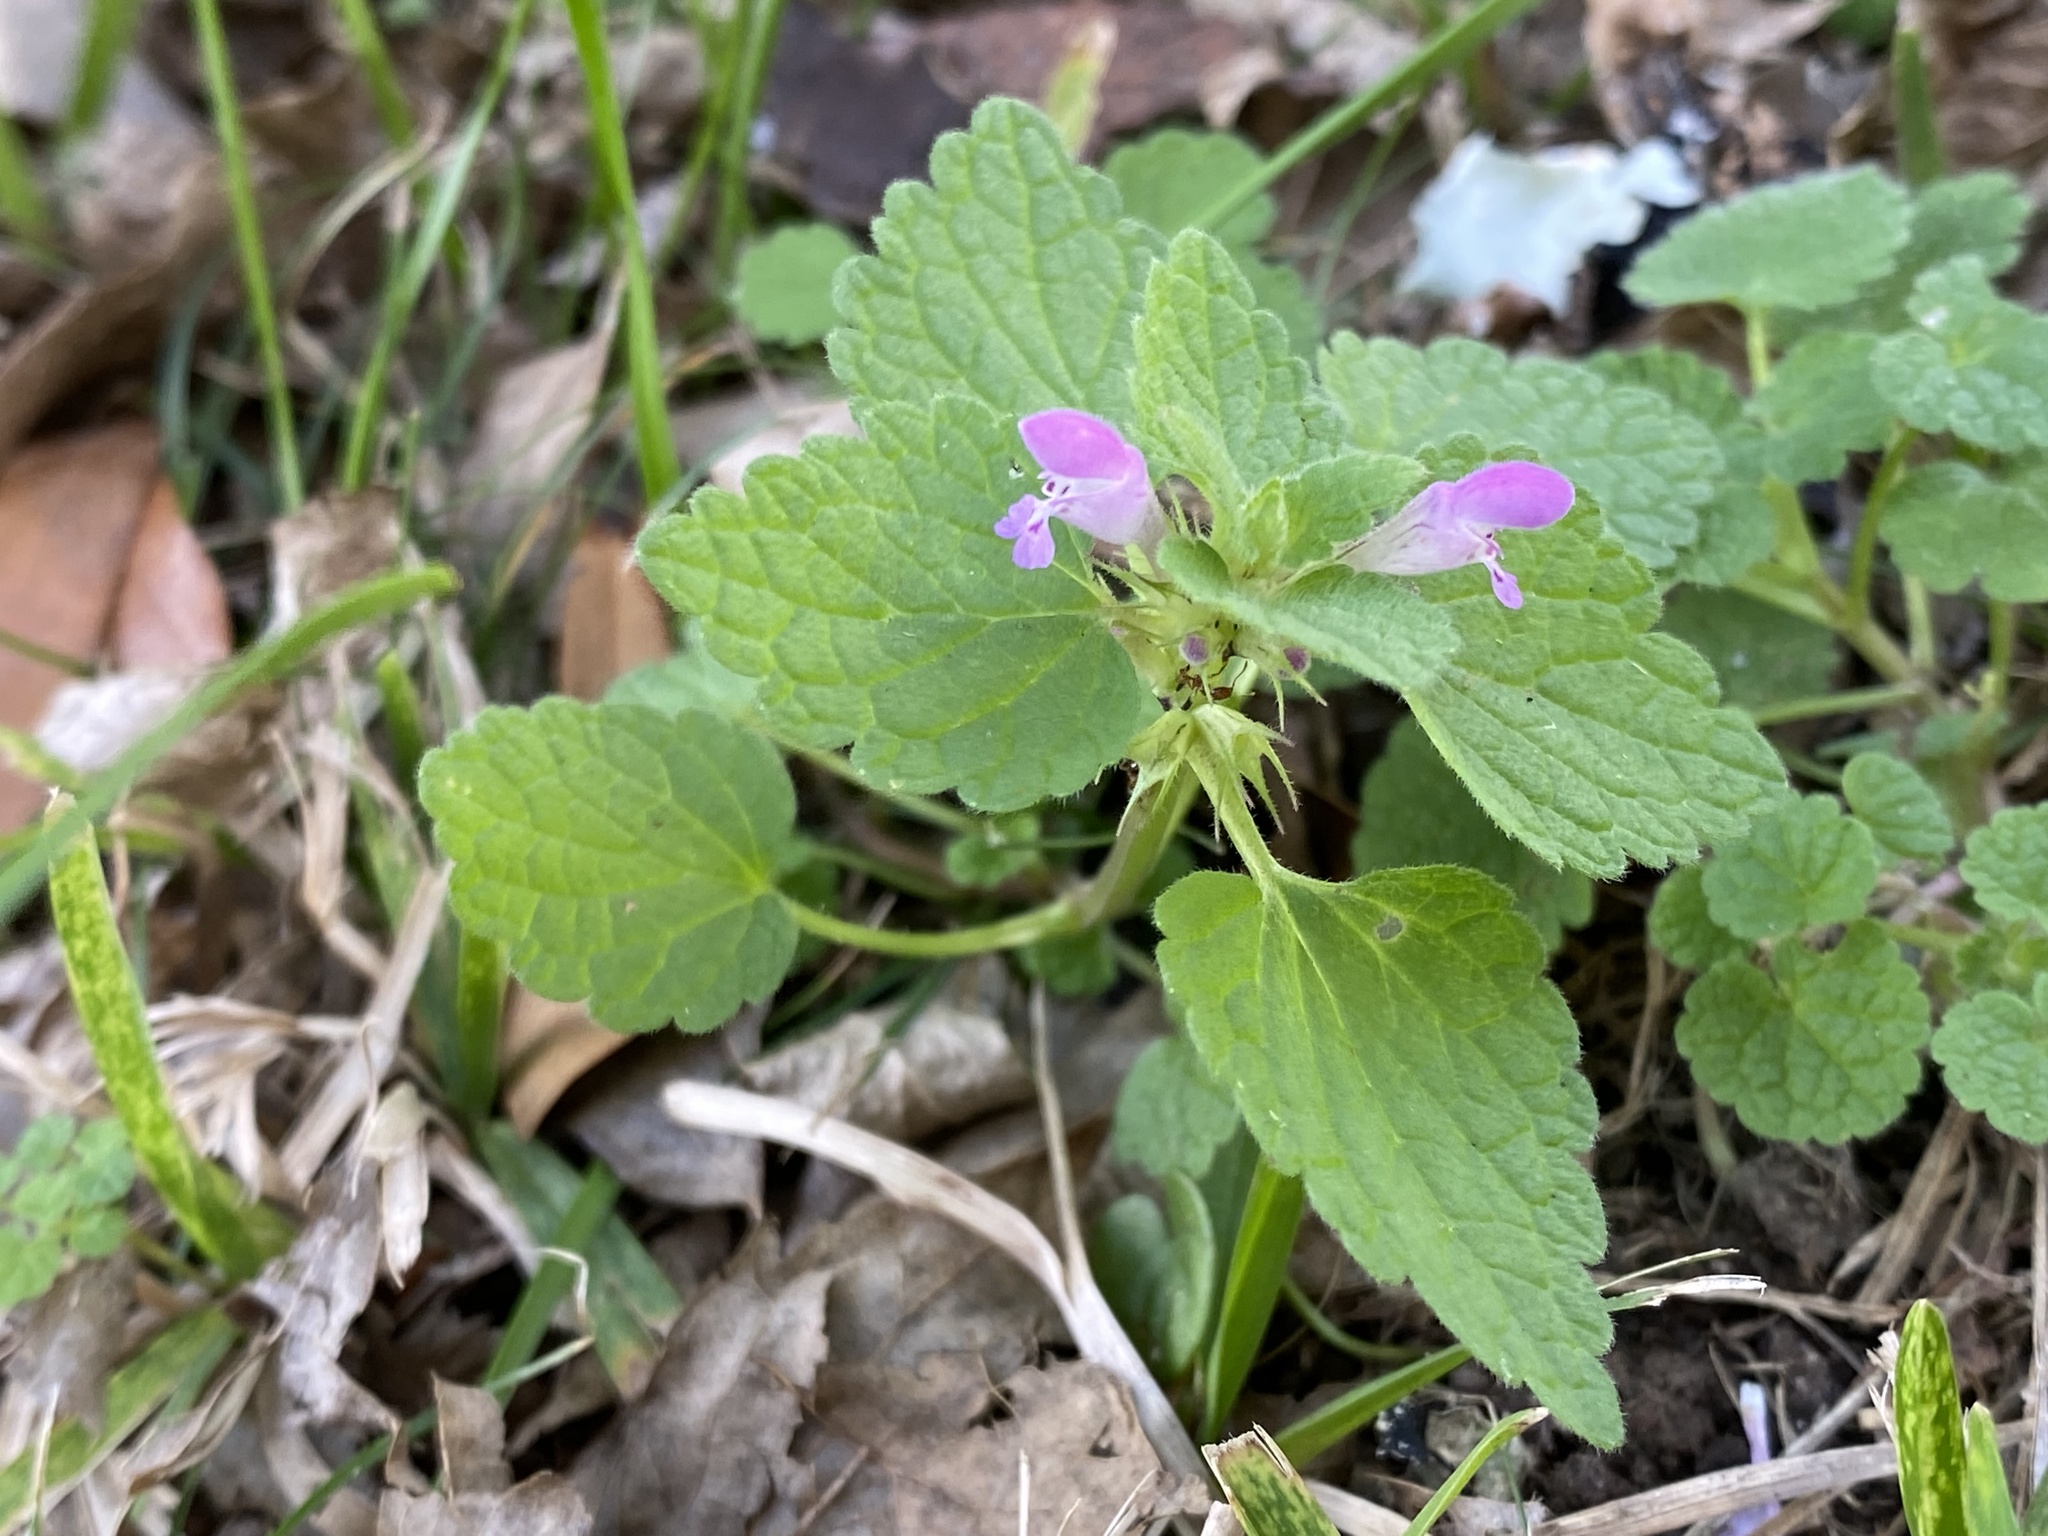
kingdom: Plantae
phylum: Tracheophyta
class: Magnoliopsida
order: Lamiales
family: Lamiaceae
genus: Lamium
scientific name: Lamium purpureum
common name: Red dead-nettle
